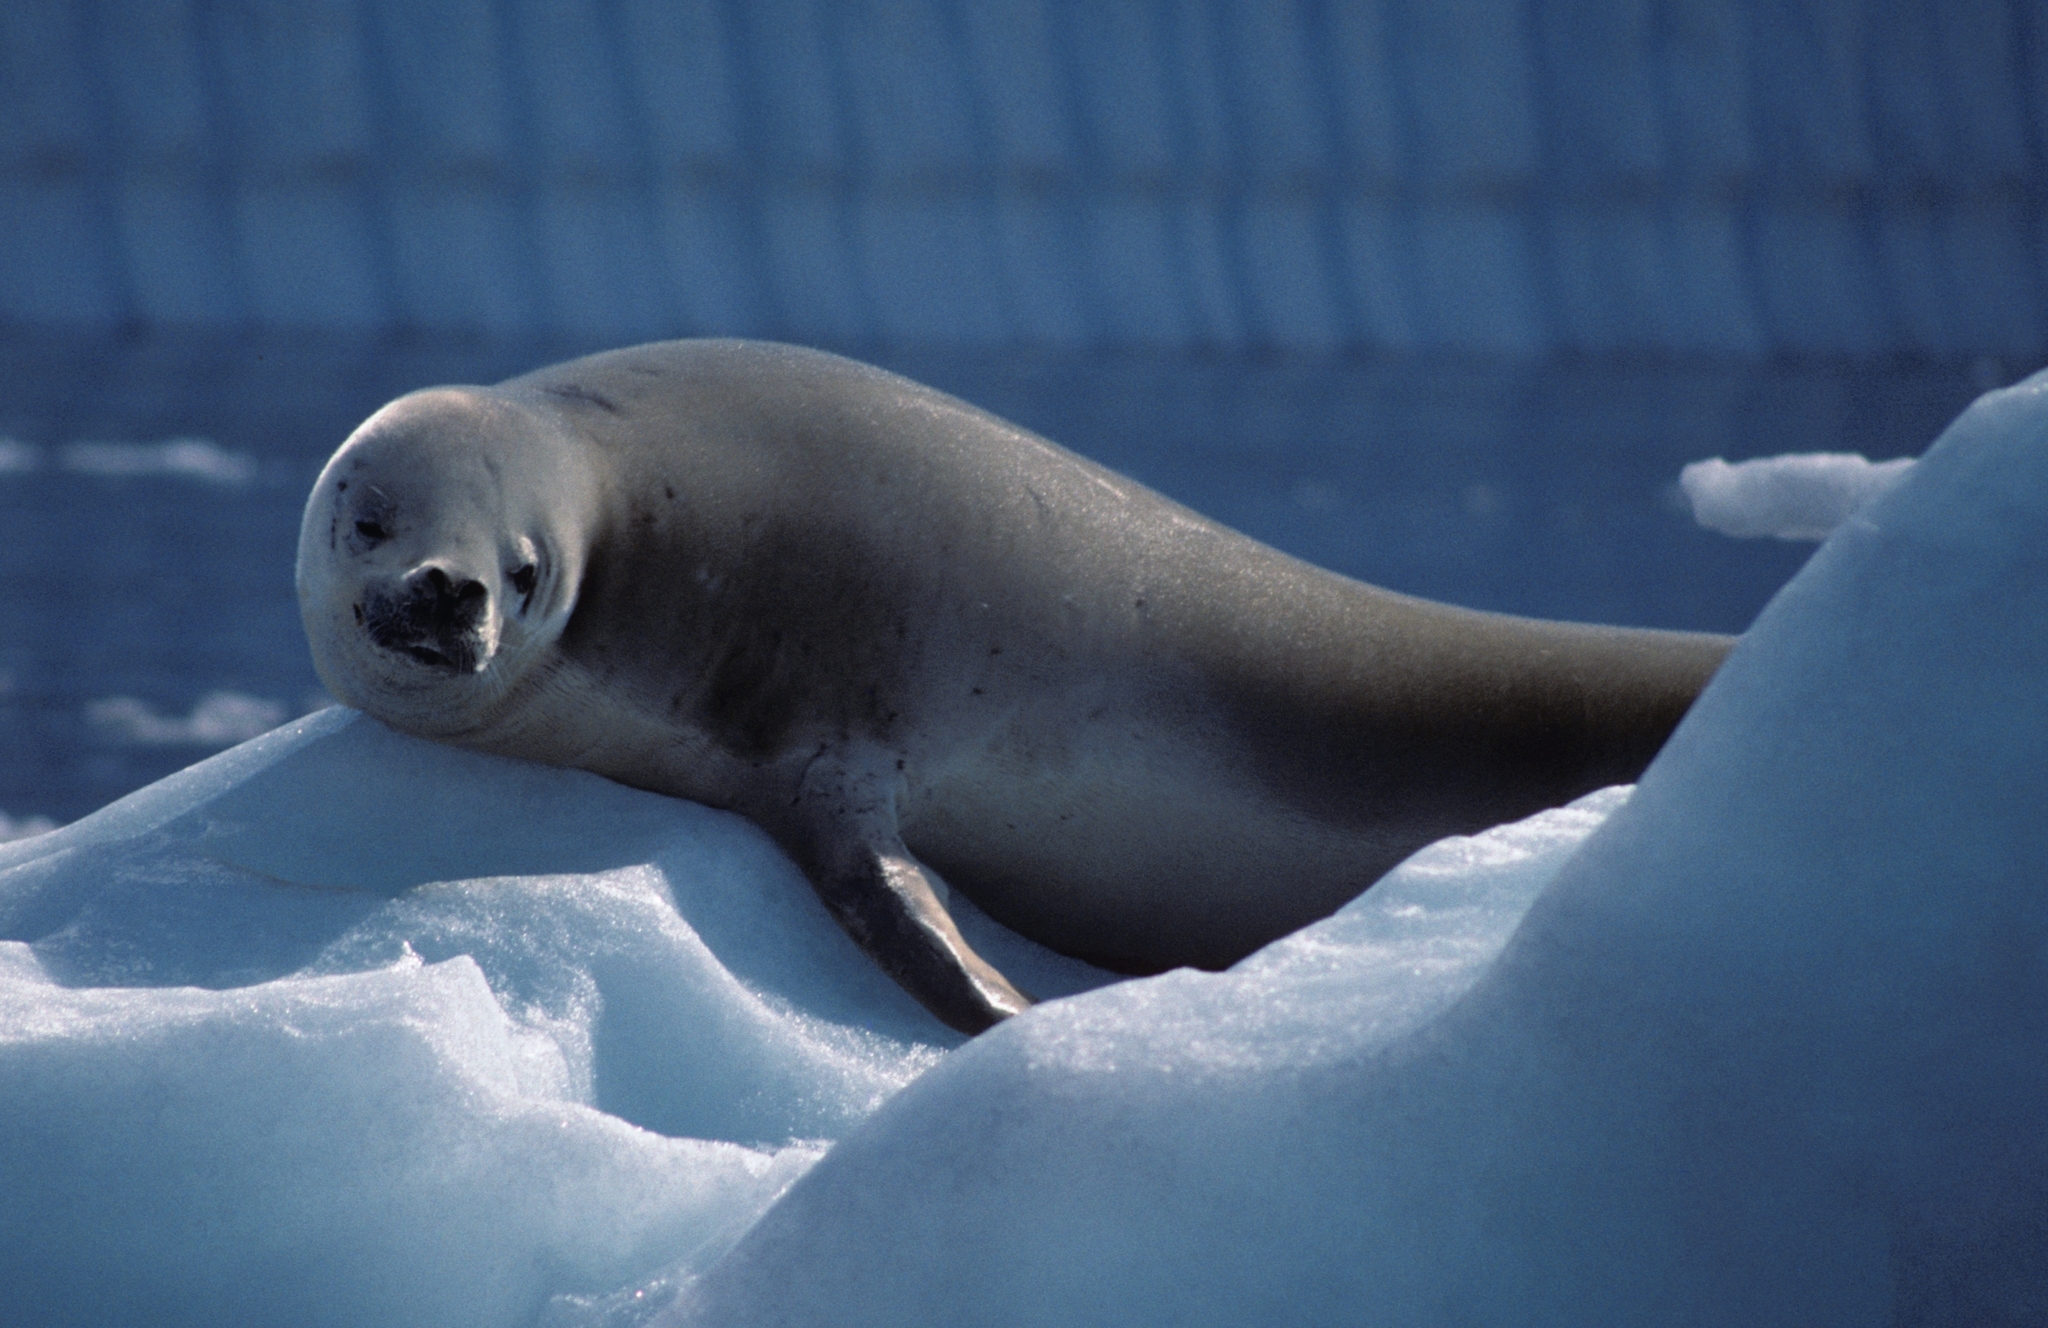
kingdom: Animalia
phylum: Chordata
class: Mammalia
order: Carnivora
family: Phocidae
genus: Lobodon
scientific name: Lobodon carcinophaga
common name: Crabeater seal
